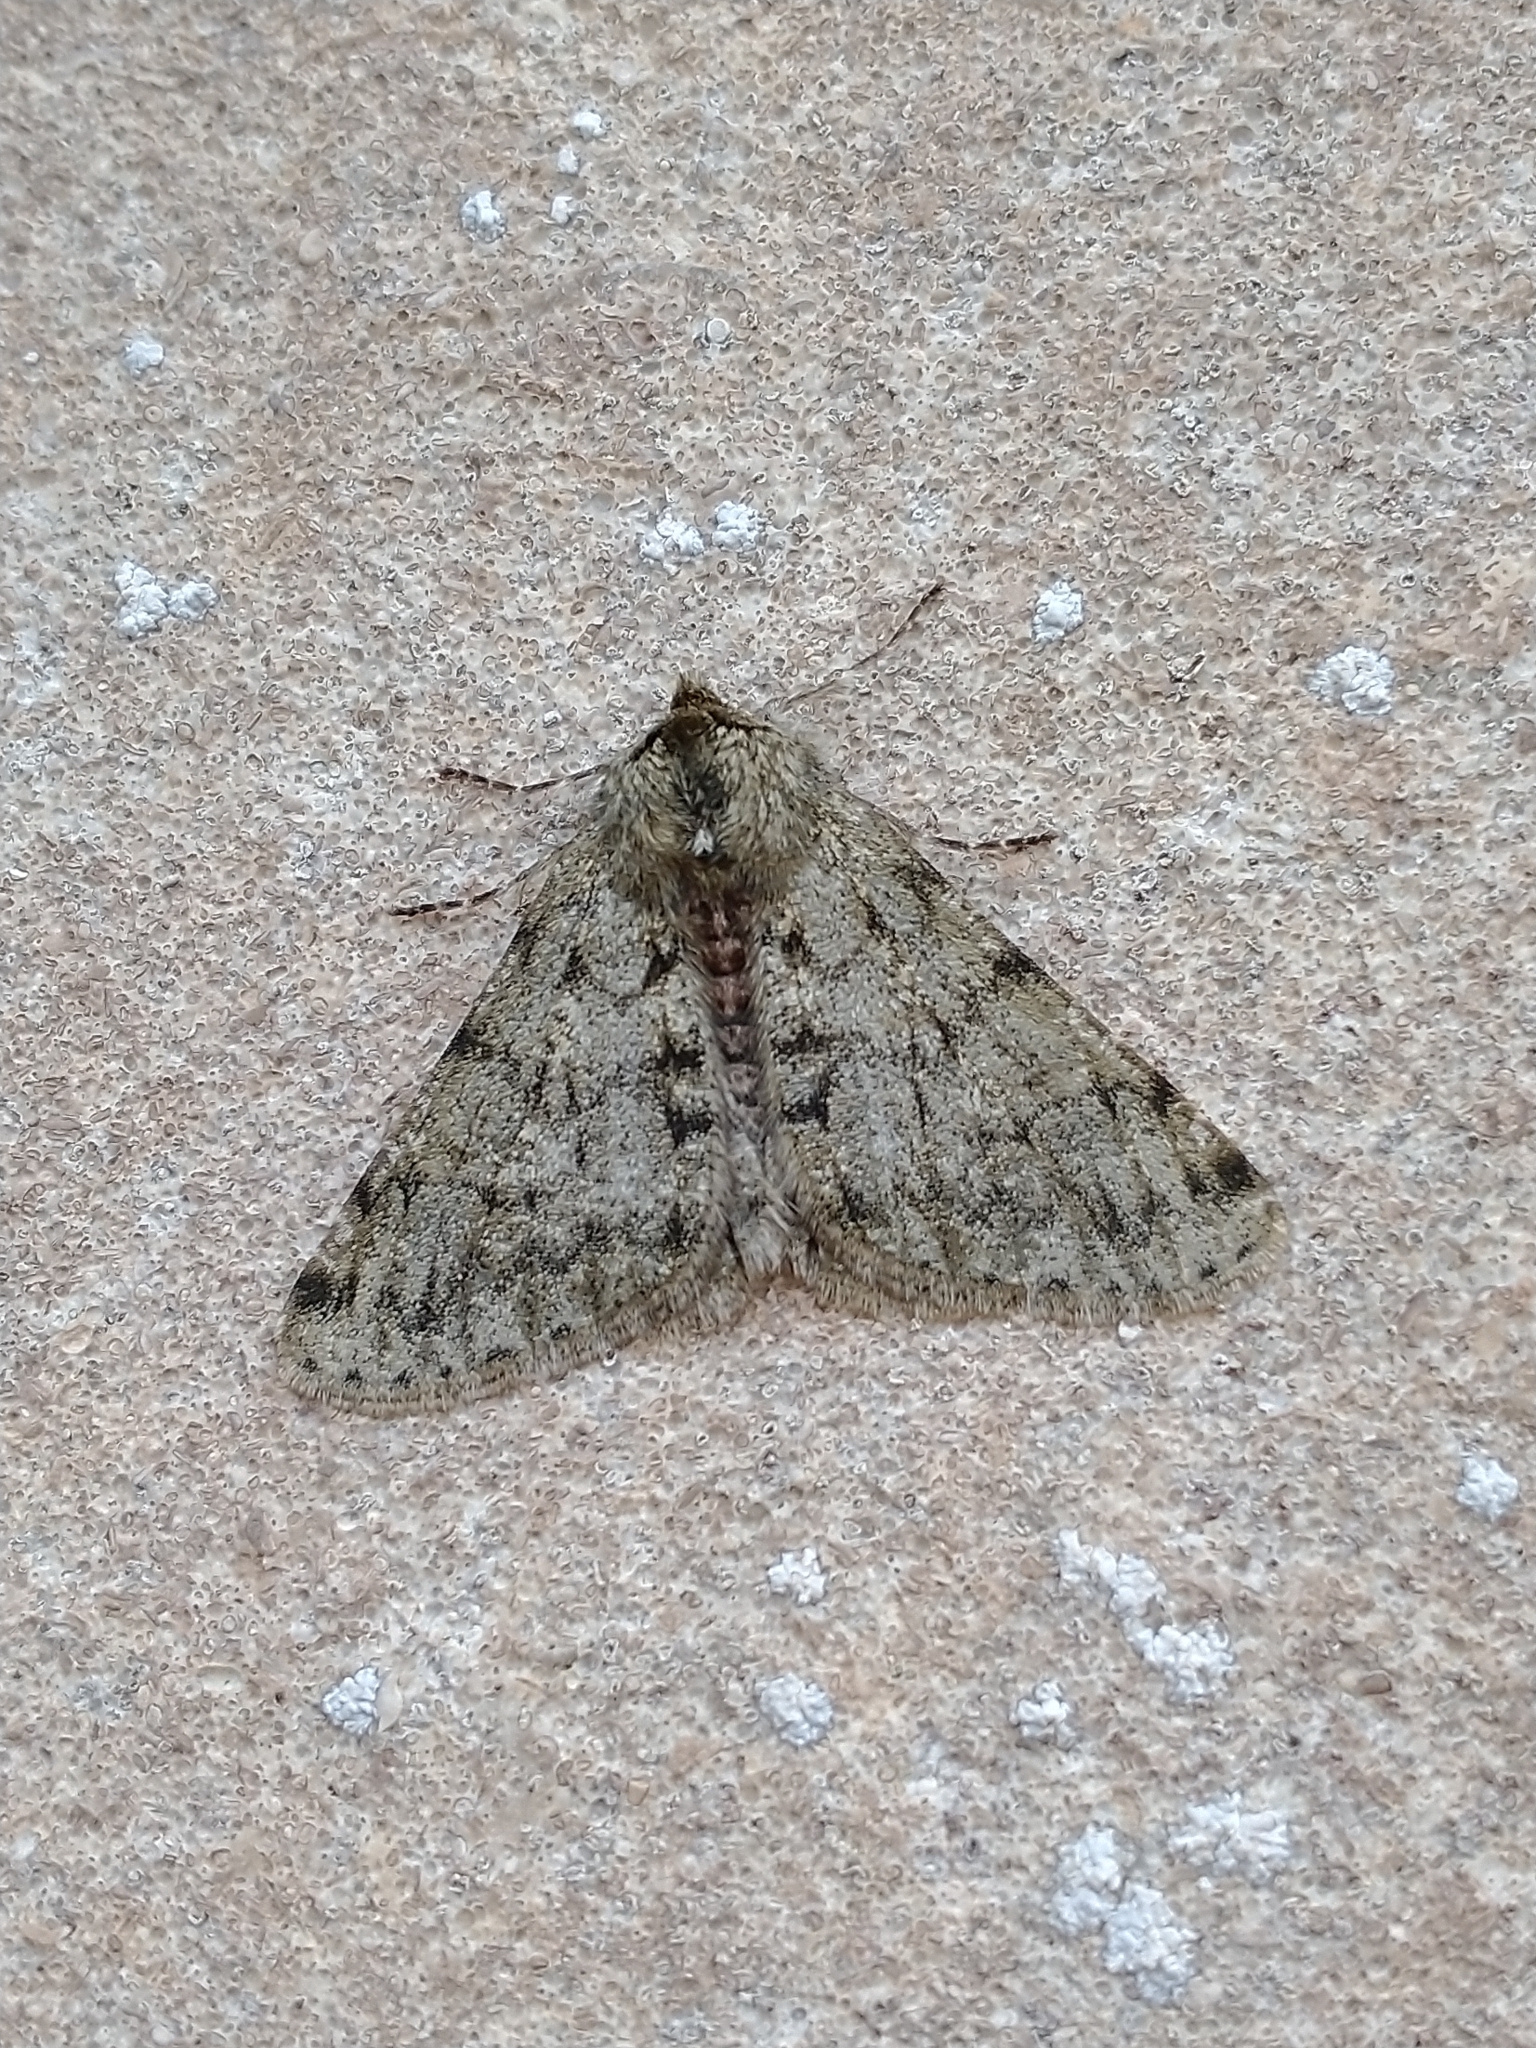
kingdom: Animalia
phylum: Arthropoda
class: Insecta
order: Lepidoptera
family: Geometridae
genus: Phigalia
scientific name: Phigalia pilosaria
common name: Pale brindled beauty
